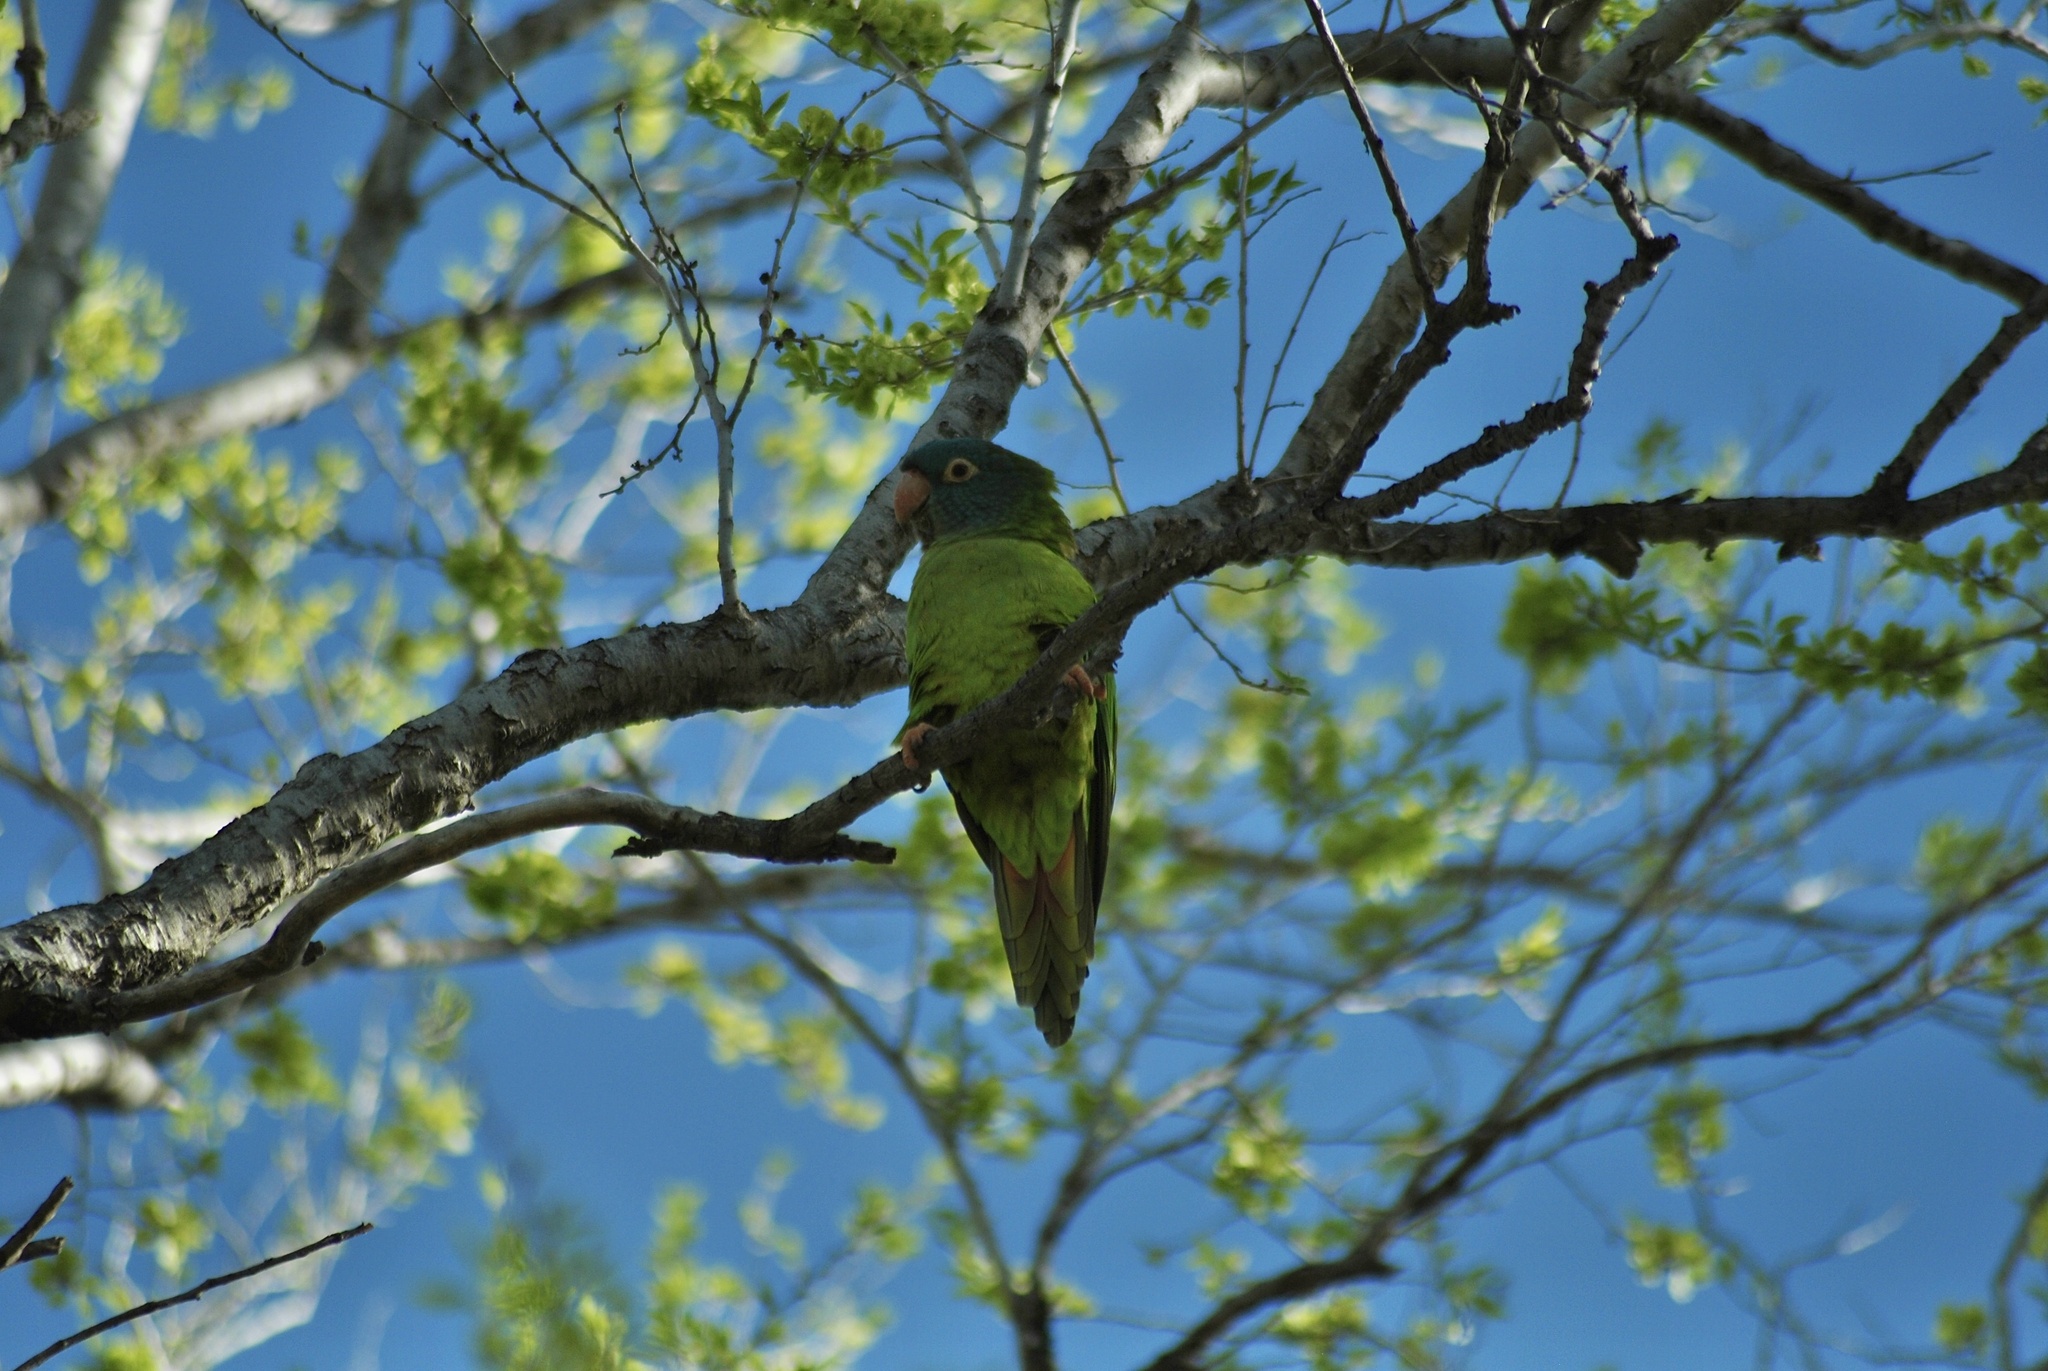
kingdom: Animalia
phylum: Chordata
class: Aves
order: Psittaciformes
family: Psittacidae
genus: Aratinga
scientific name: Aratinga acuticaudata
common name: Blue-crowned parakeet
